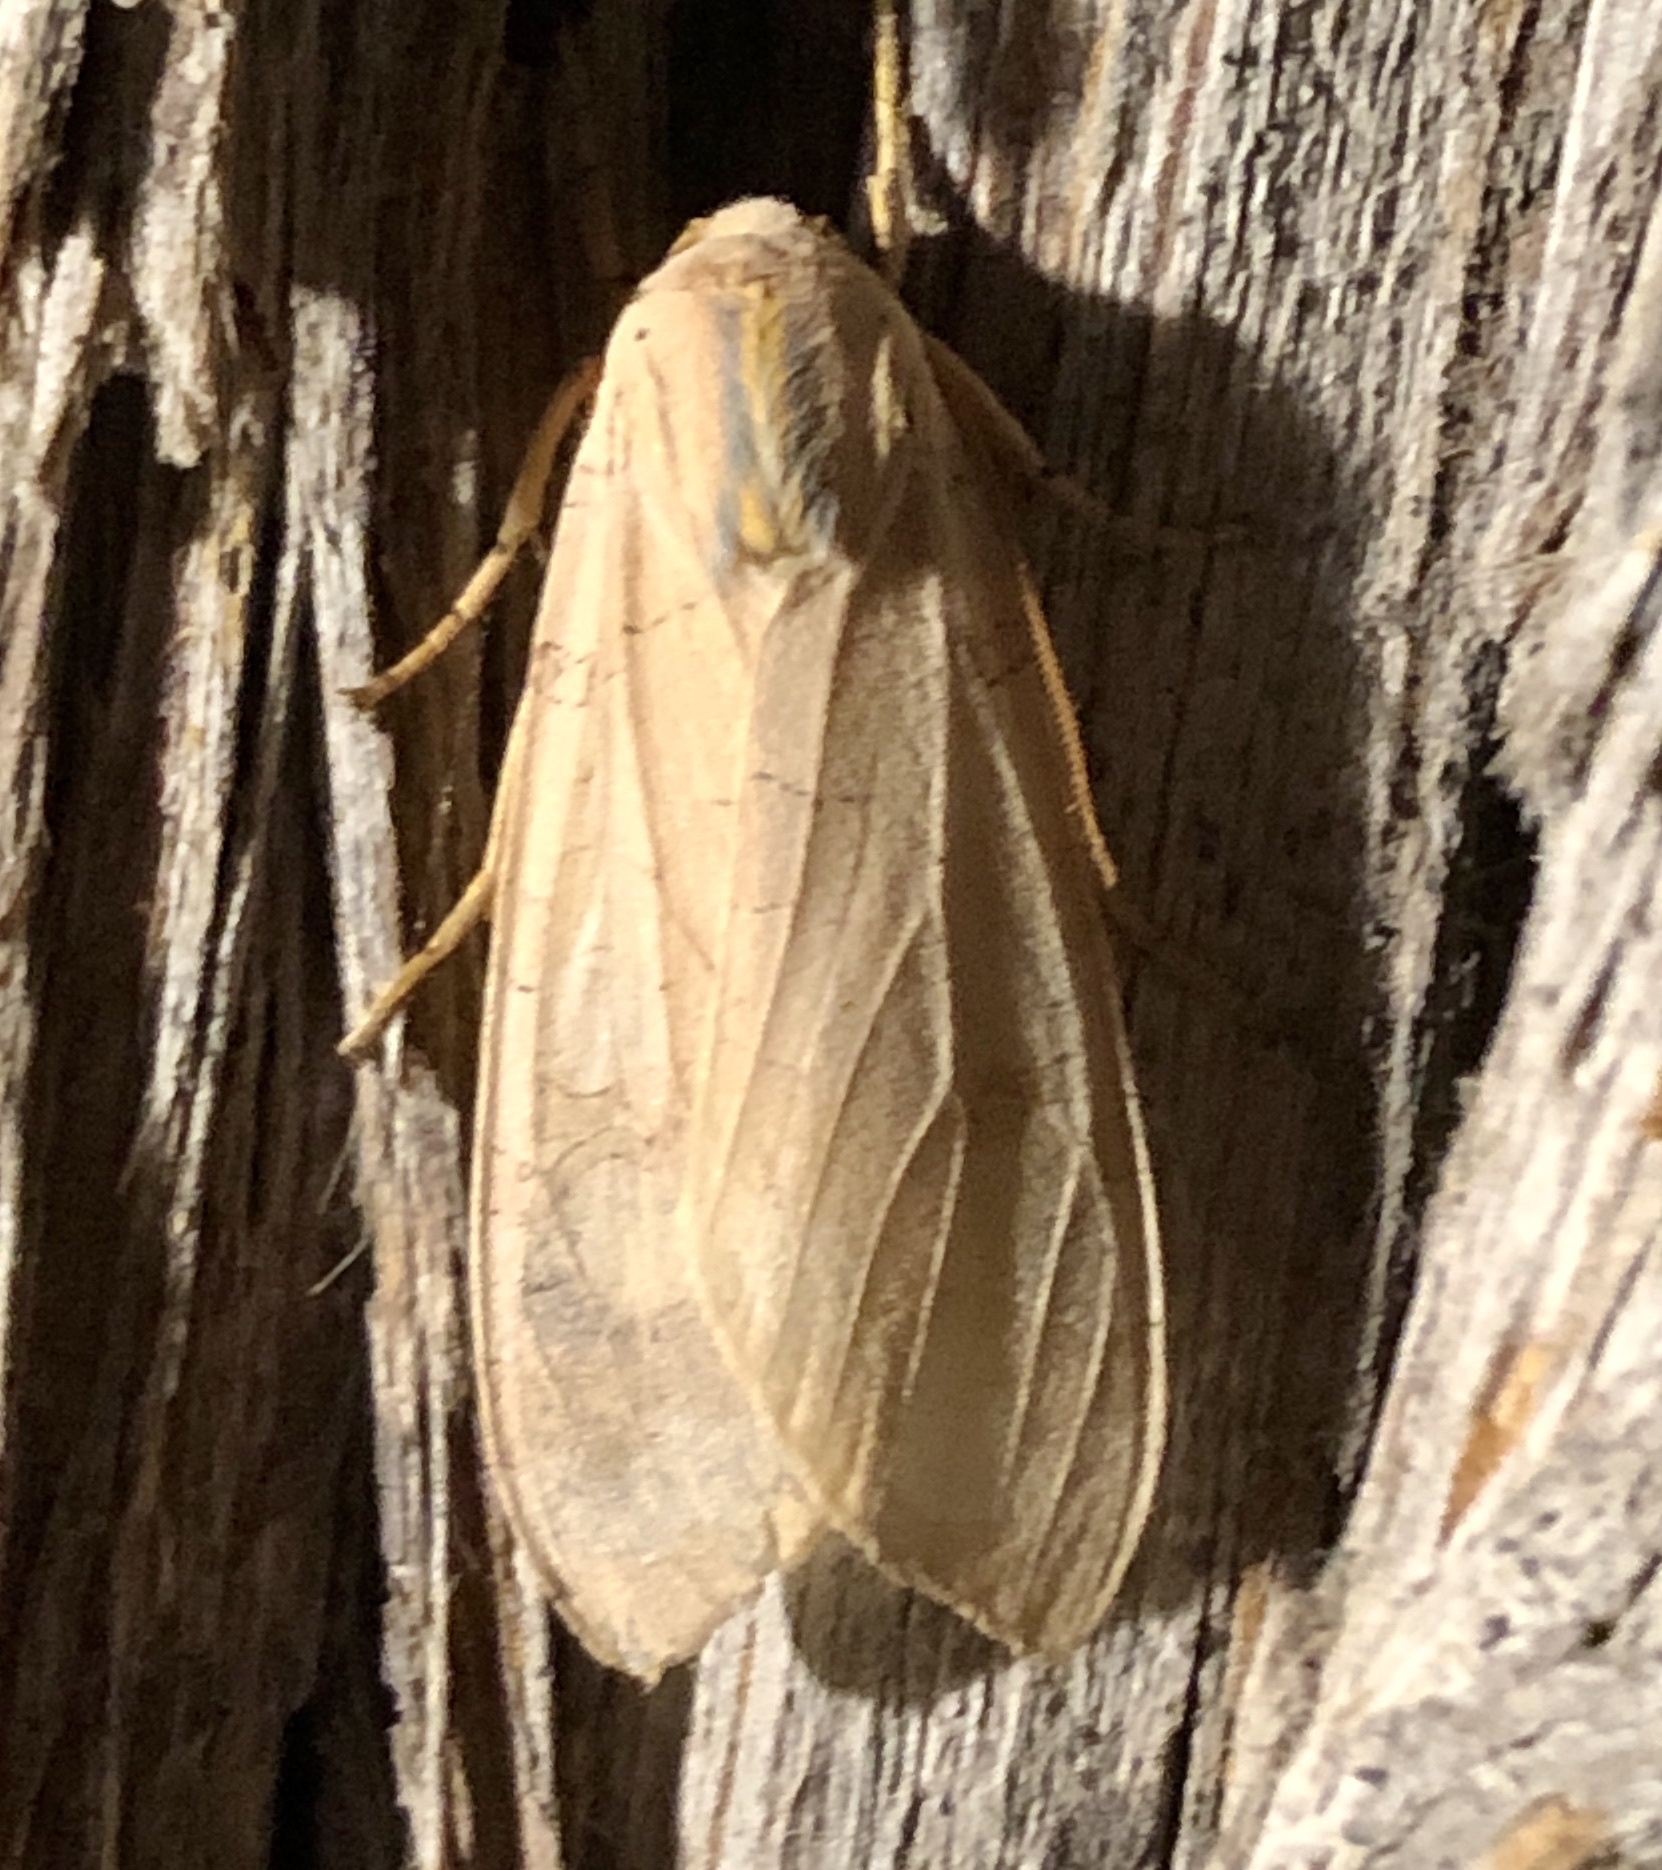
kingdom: Animalia
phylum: Arthropoda
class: Insecta
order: Lepidoptera
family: Erebidae
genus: Halysidota
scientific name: Halysidota tessellaris
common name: Banded tussock moth
